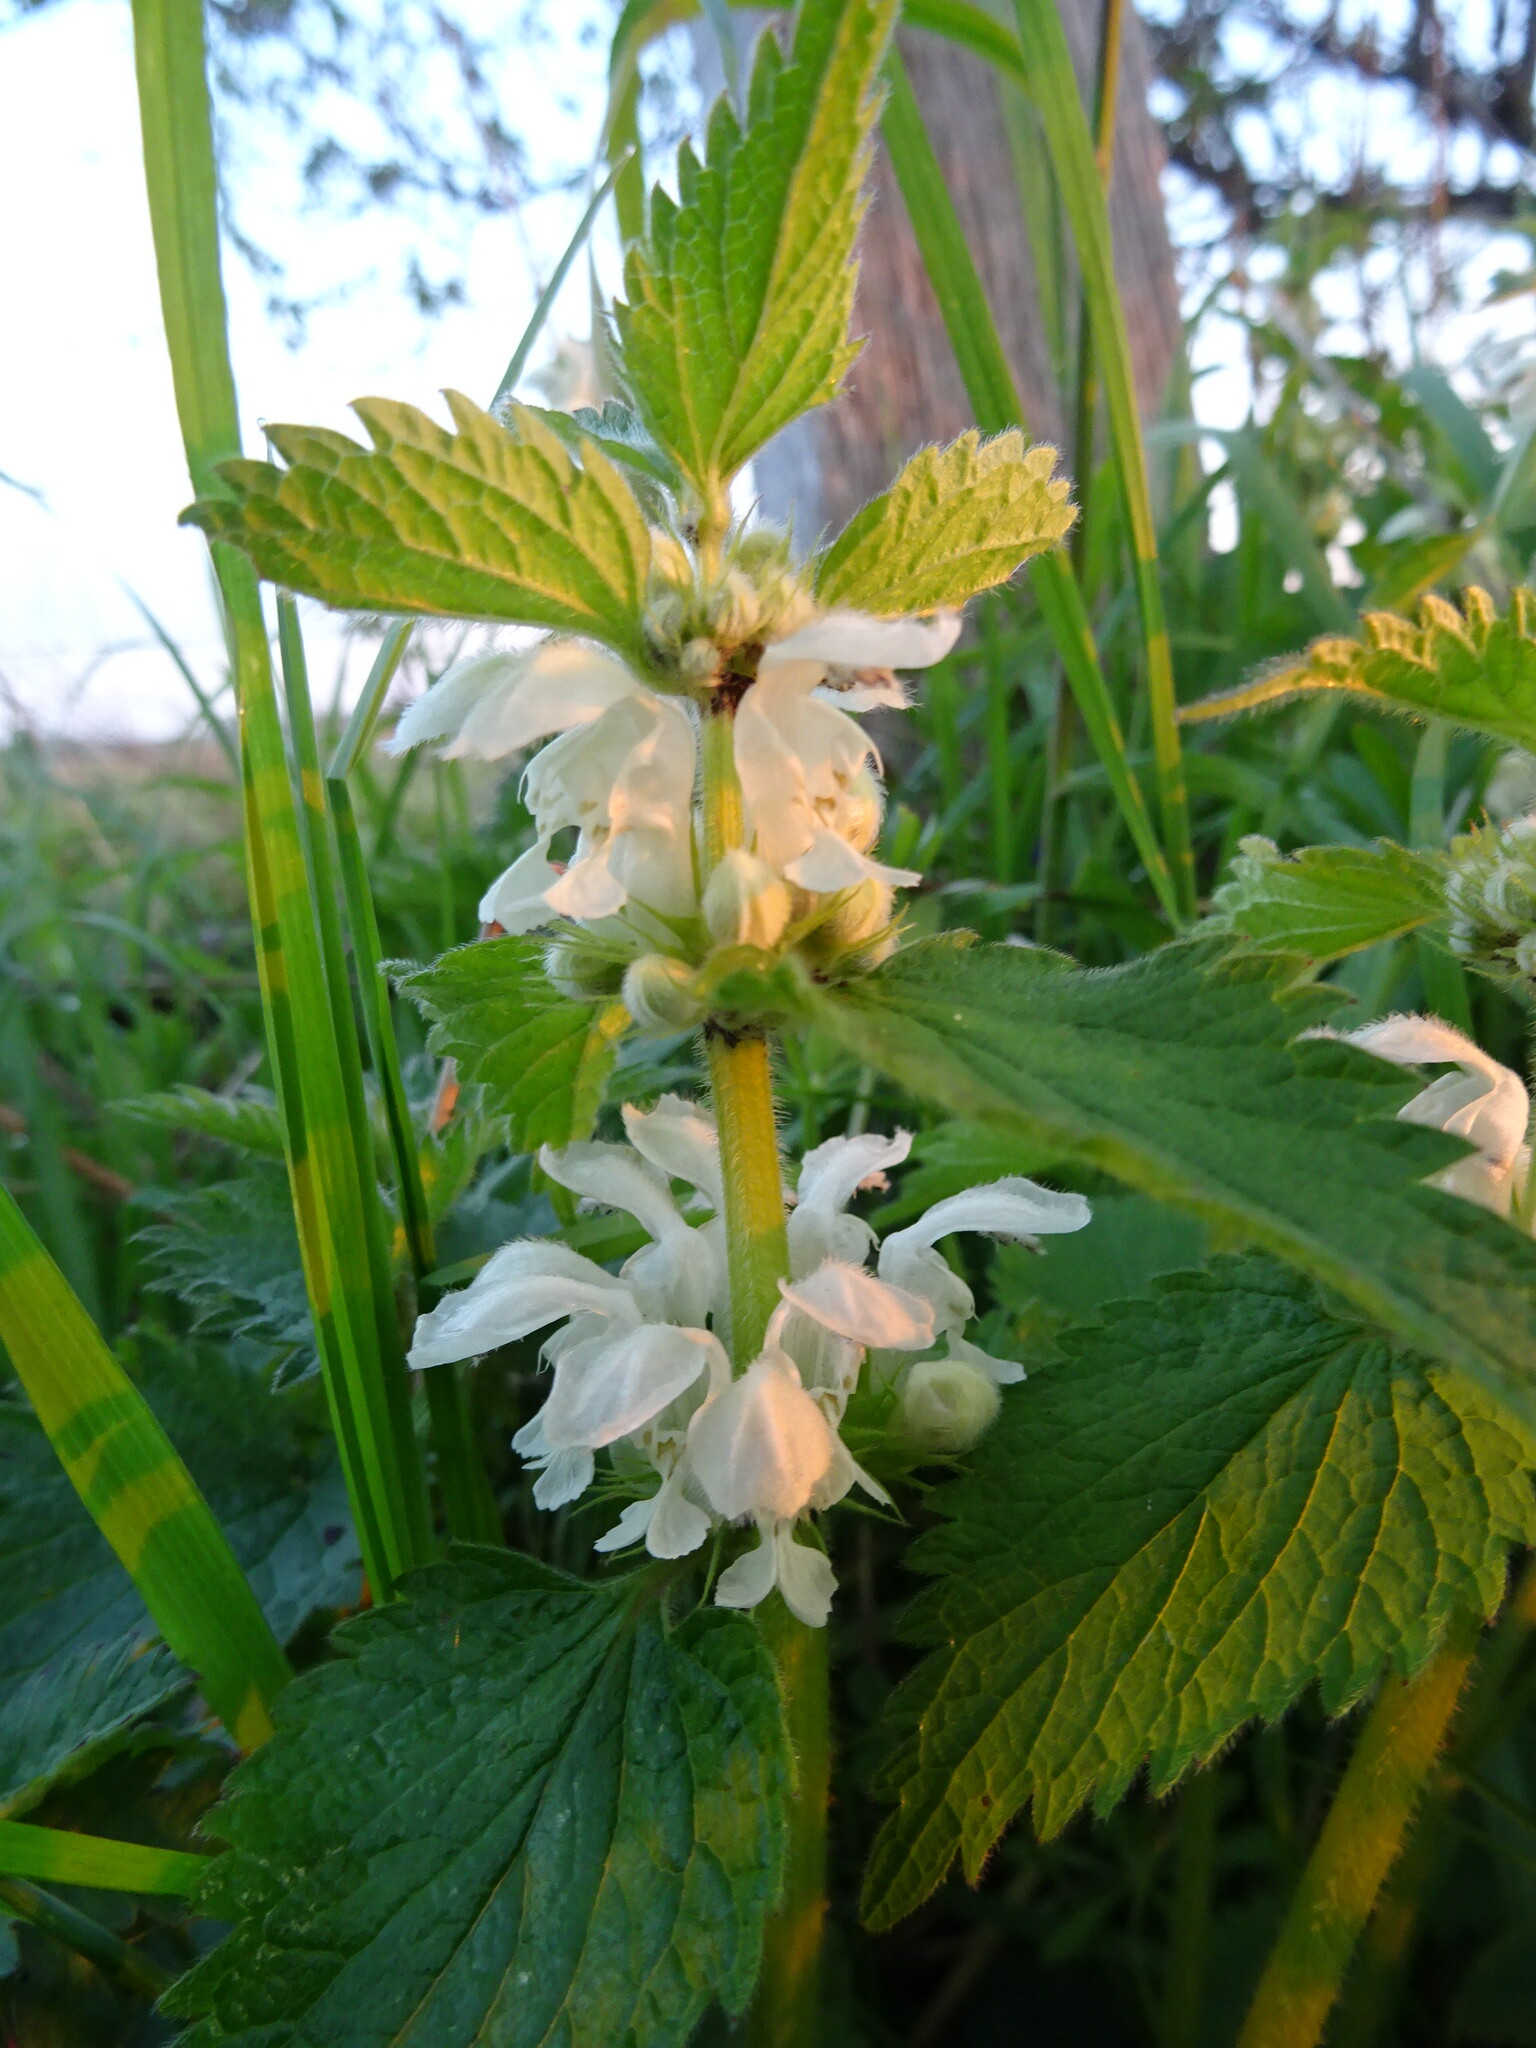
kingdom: Plantae
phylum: Tracheophyta
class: Magnoliopsida
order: Lamiales
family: Lamiaceae
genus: Lamium
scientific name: Lamium album
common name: White dead-nettle
